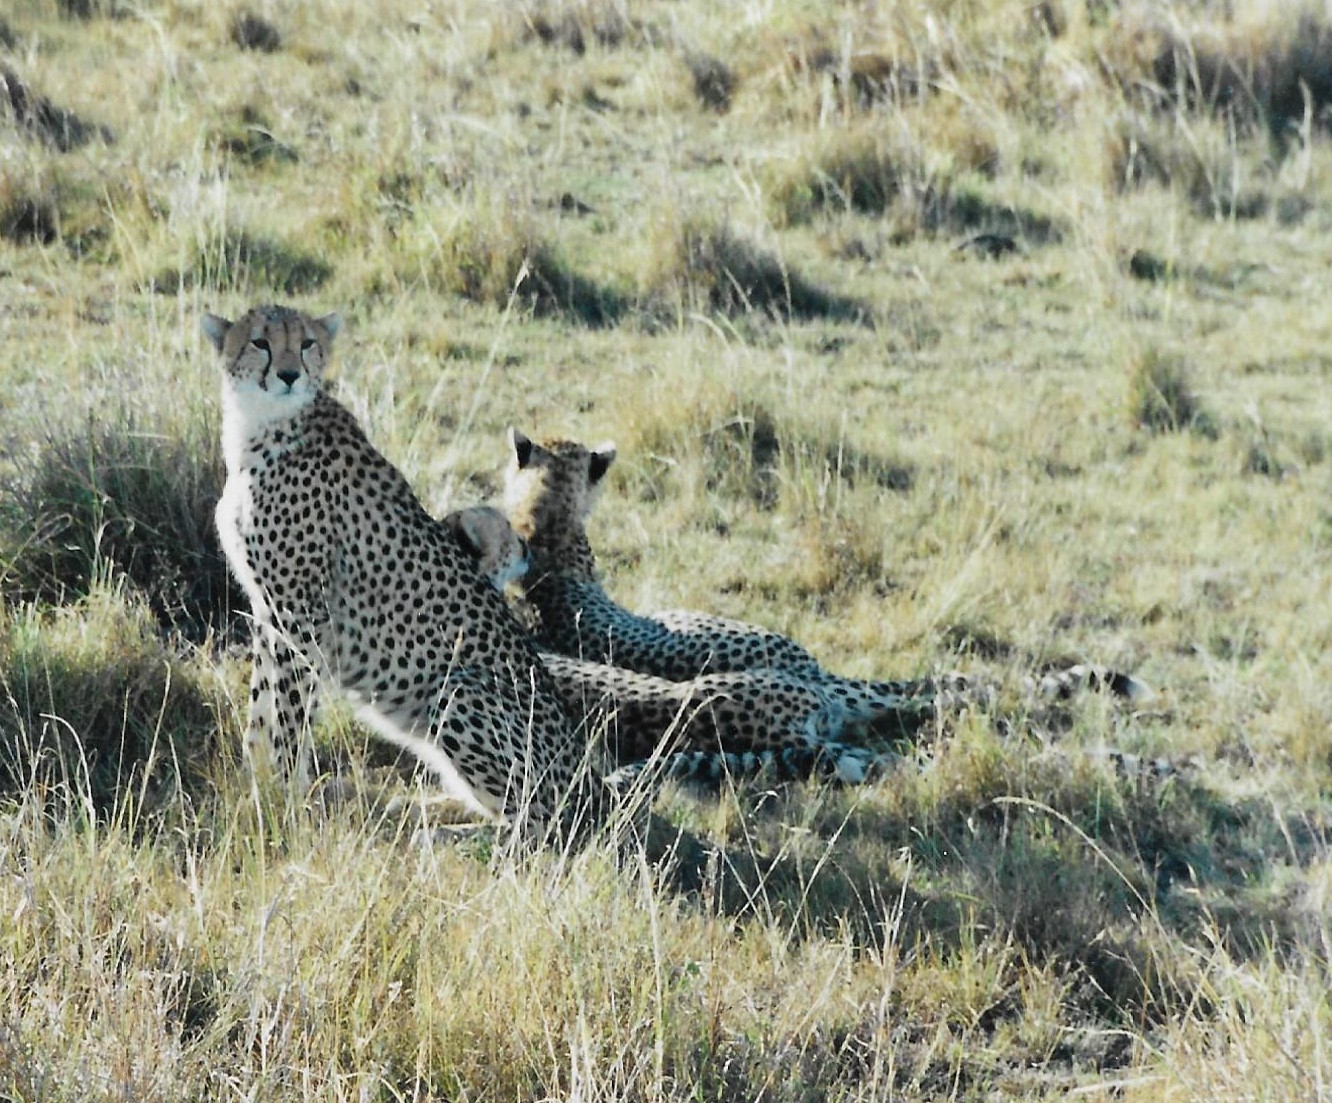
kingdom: Animalia
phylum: Chordata
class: Mammalia
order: Carnivora
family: Felidae
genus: Acinonyx
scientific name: Acinonyx jubatus
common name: Cheetah
